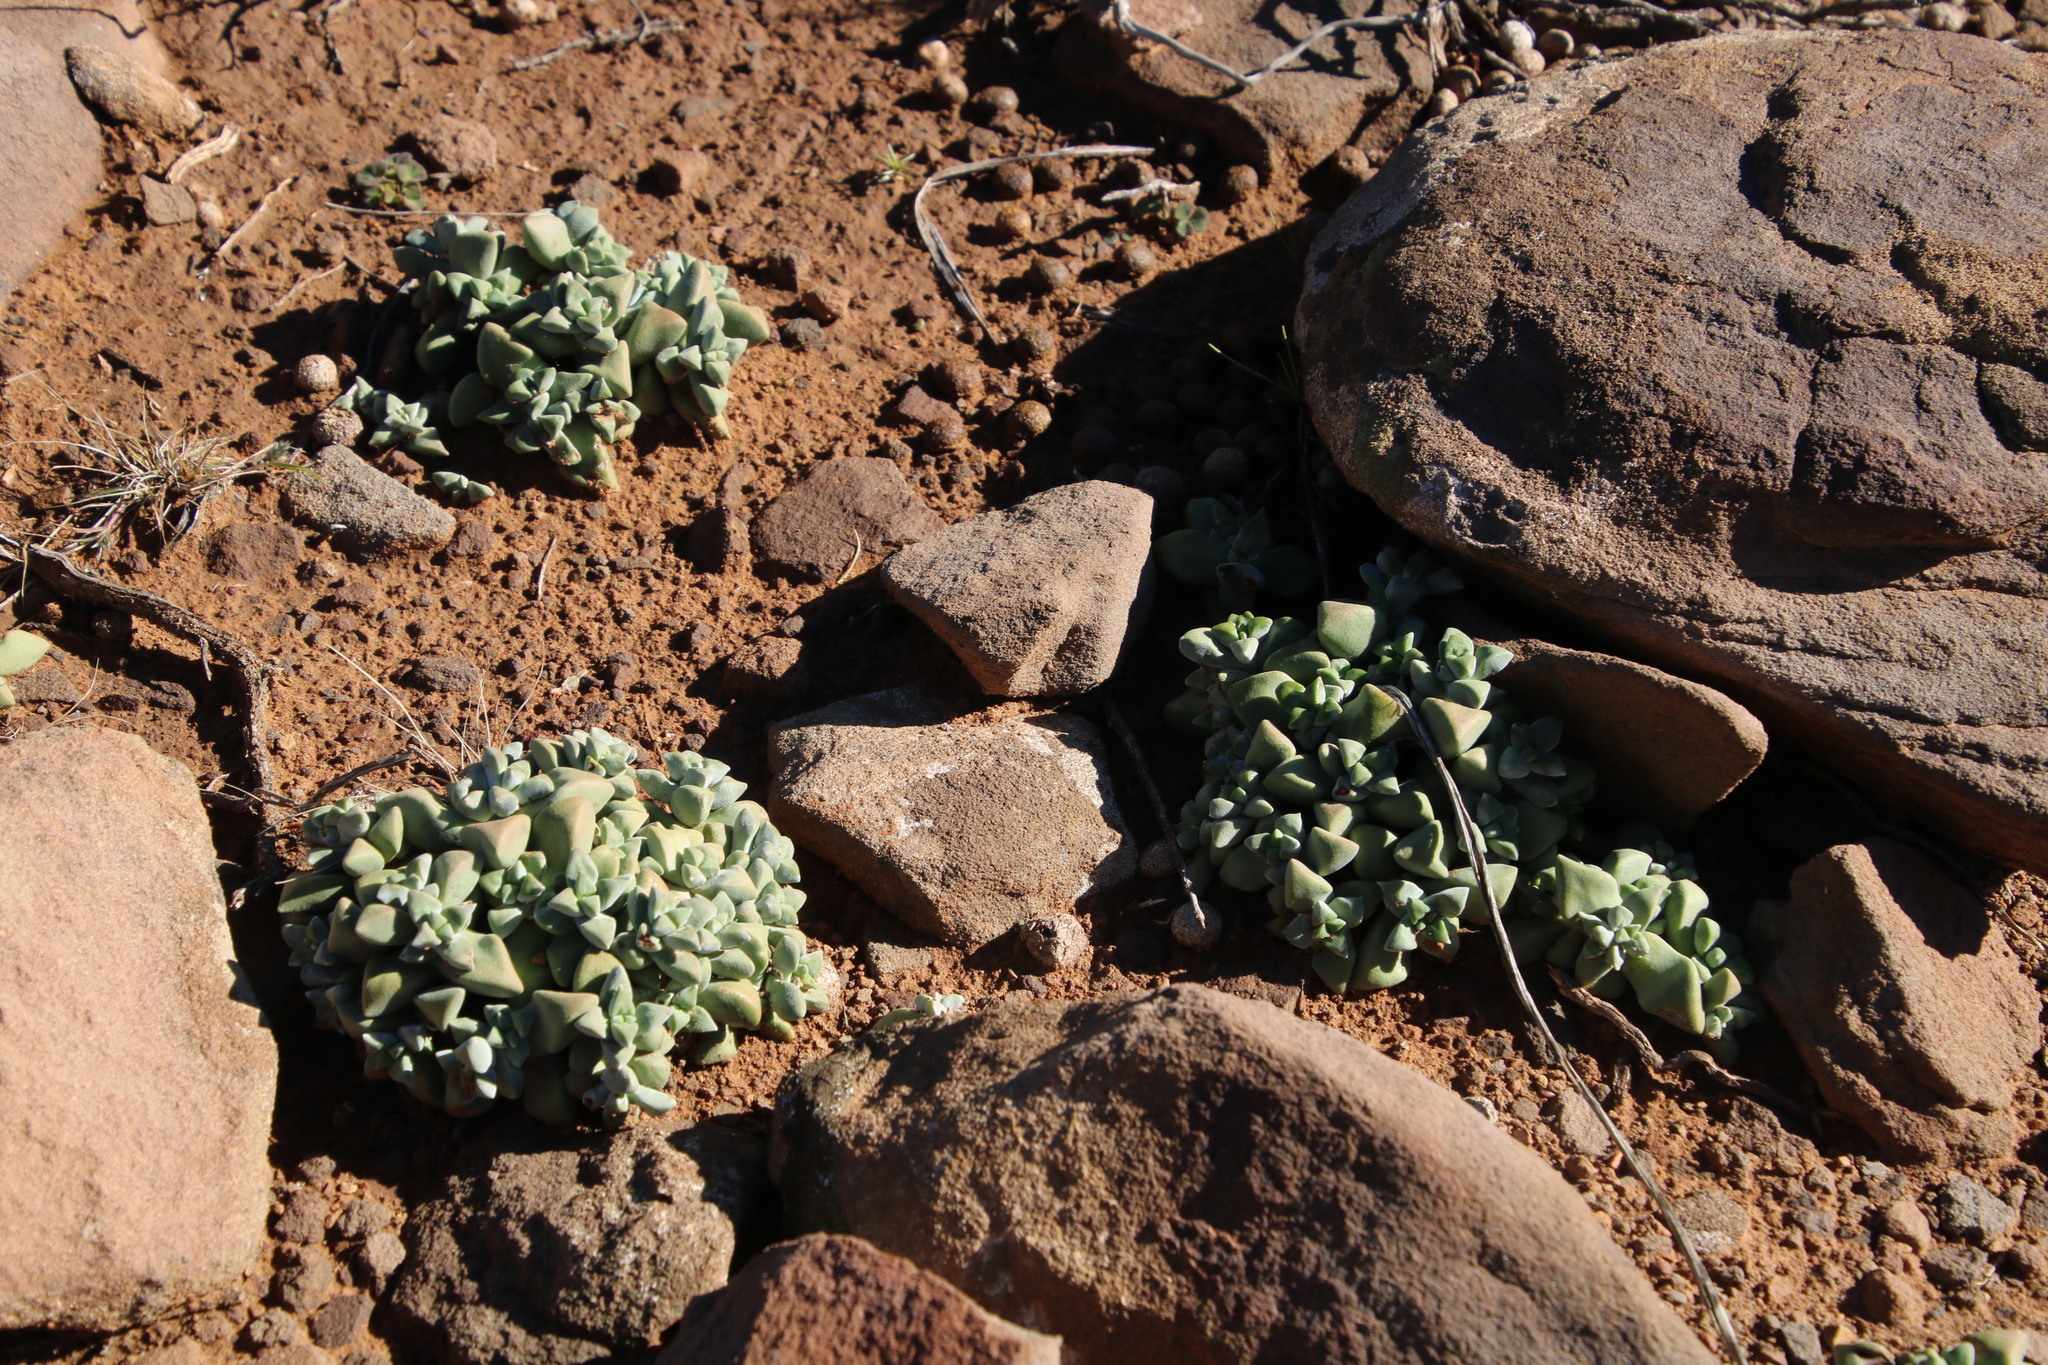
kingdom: Plantae
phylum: Tracheophyta
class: Magnoliopsida
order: Saxifragales
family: Crassulaceae
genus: Crassula
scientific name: Crassula deltoidea
